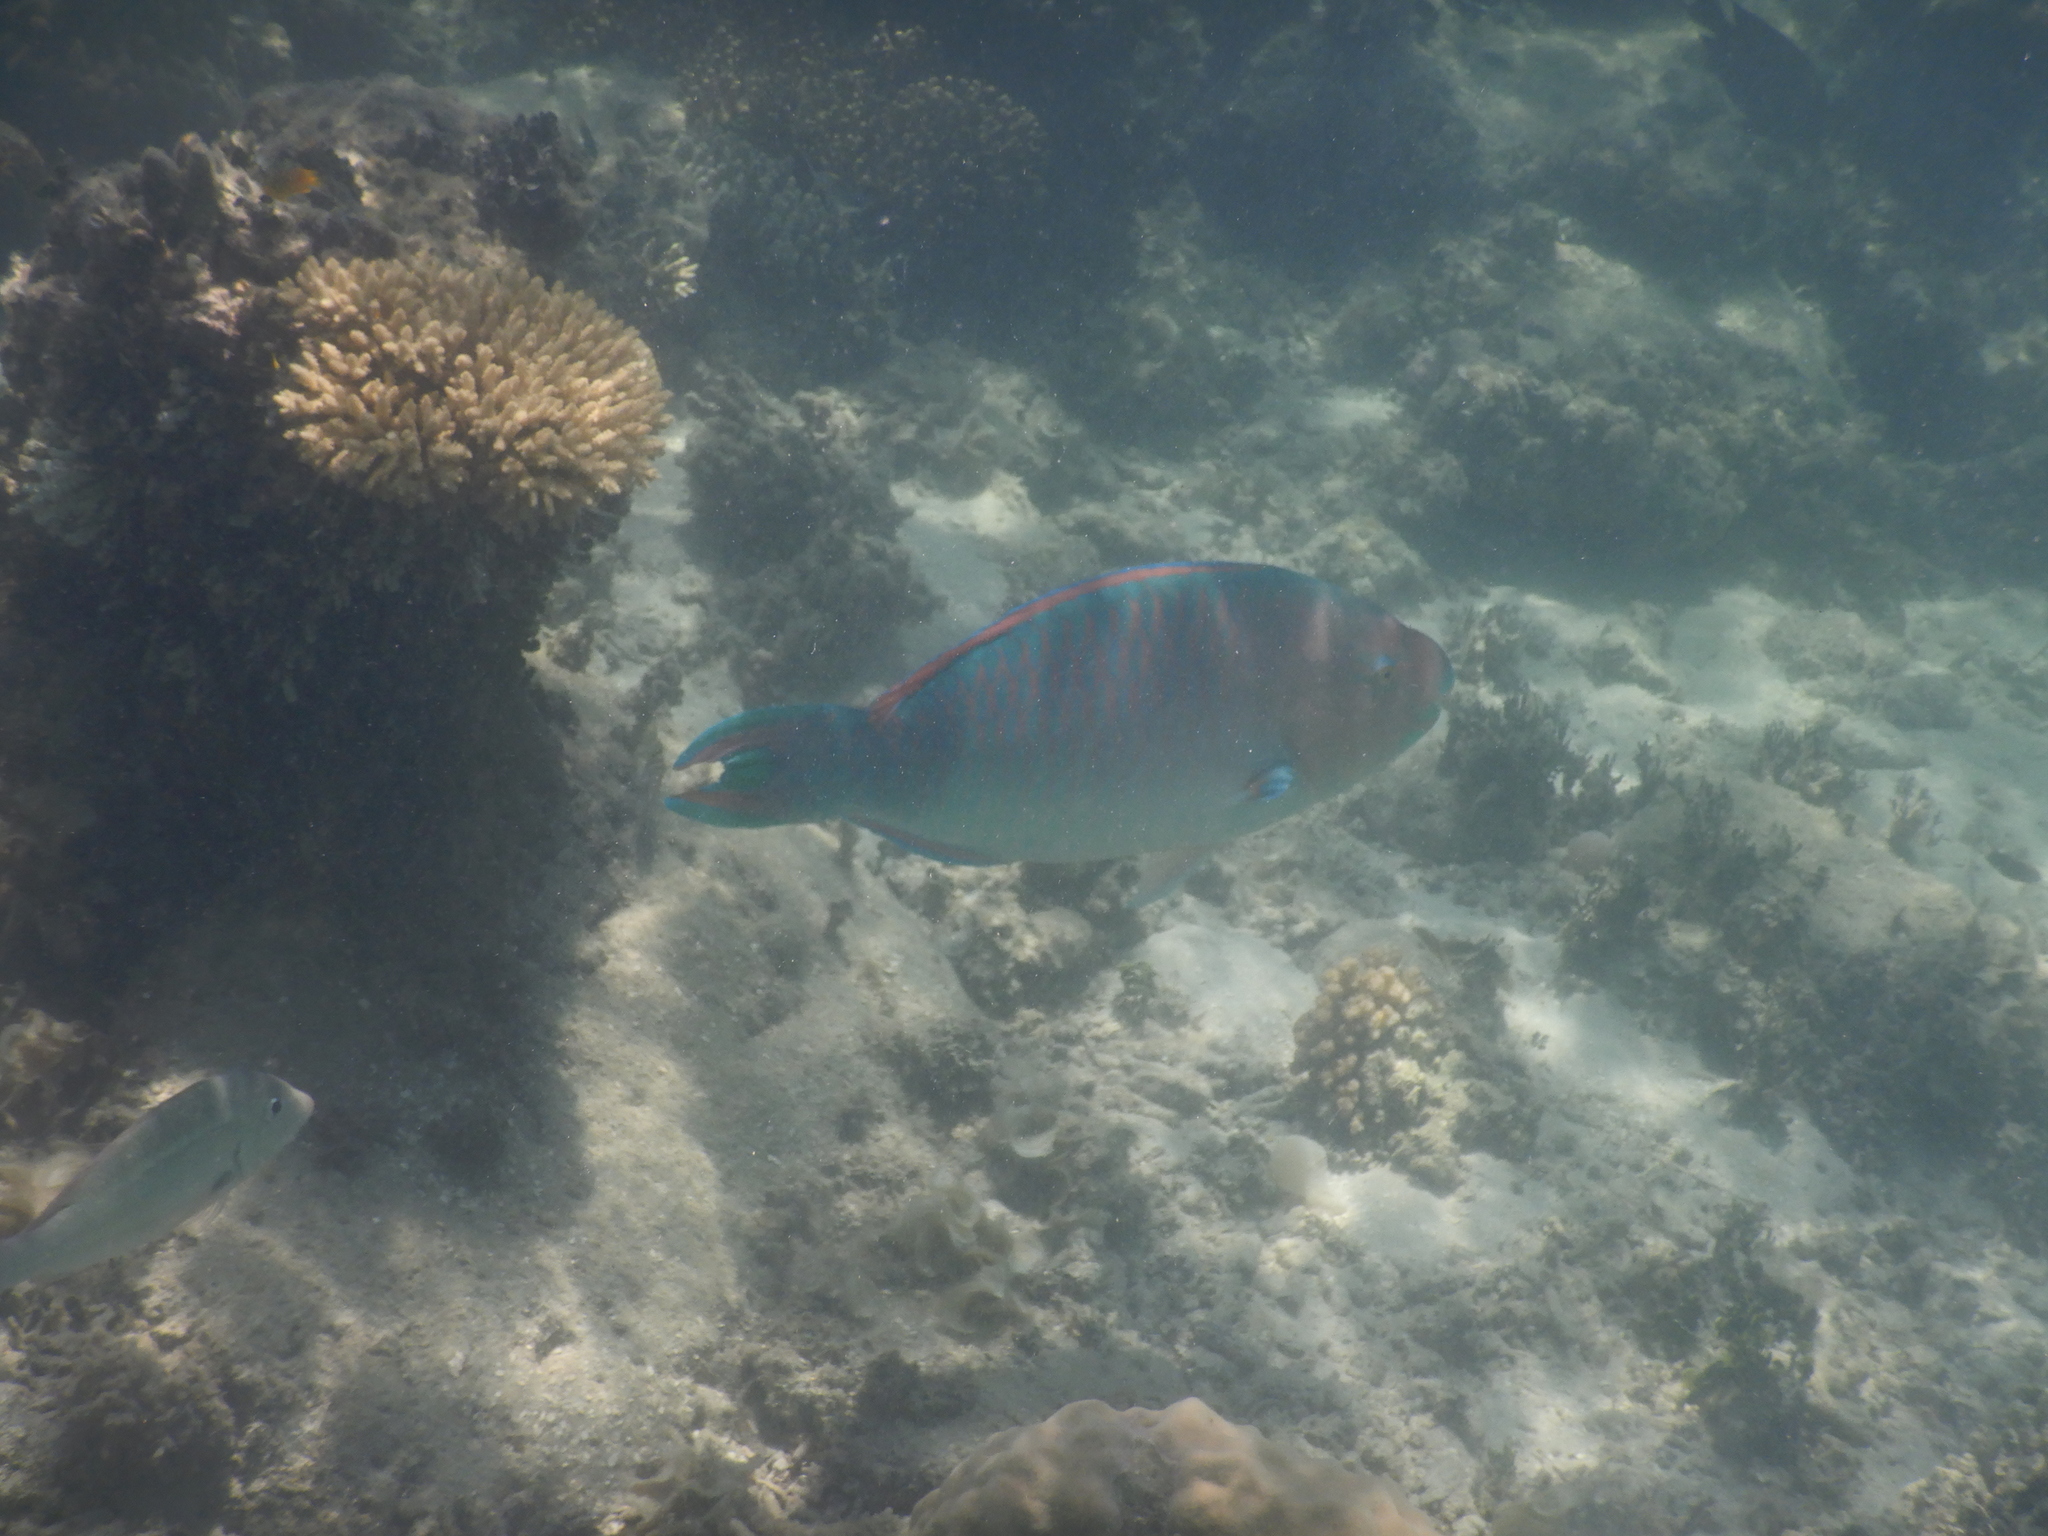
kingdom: Animalia
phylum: Chordata
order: Perciformes
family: Scaridae
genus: Scarus
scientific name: Scarus ghobban
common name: Blue-barred parrotfish
